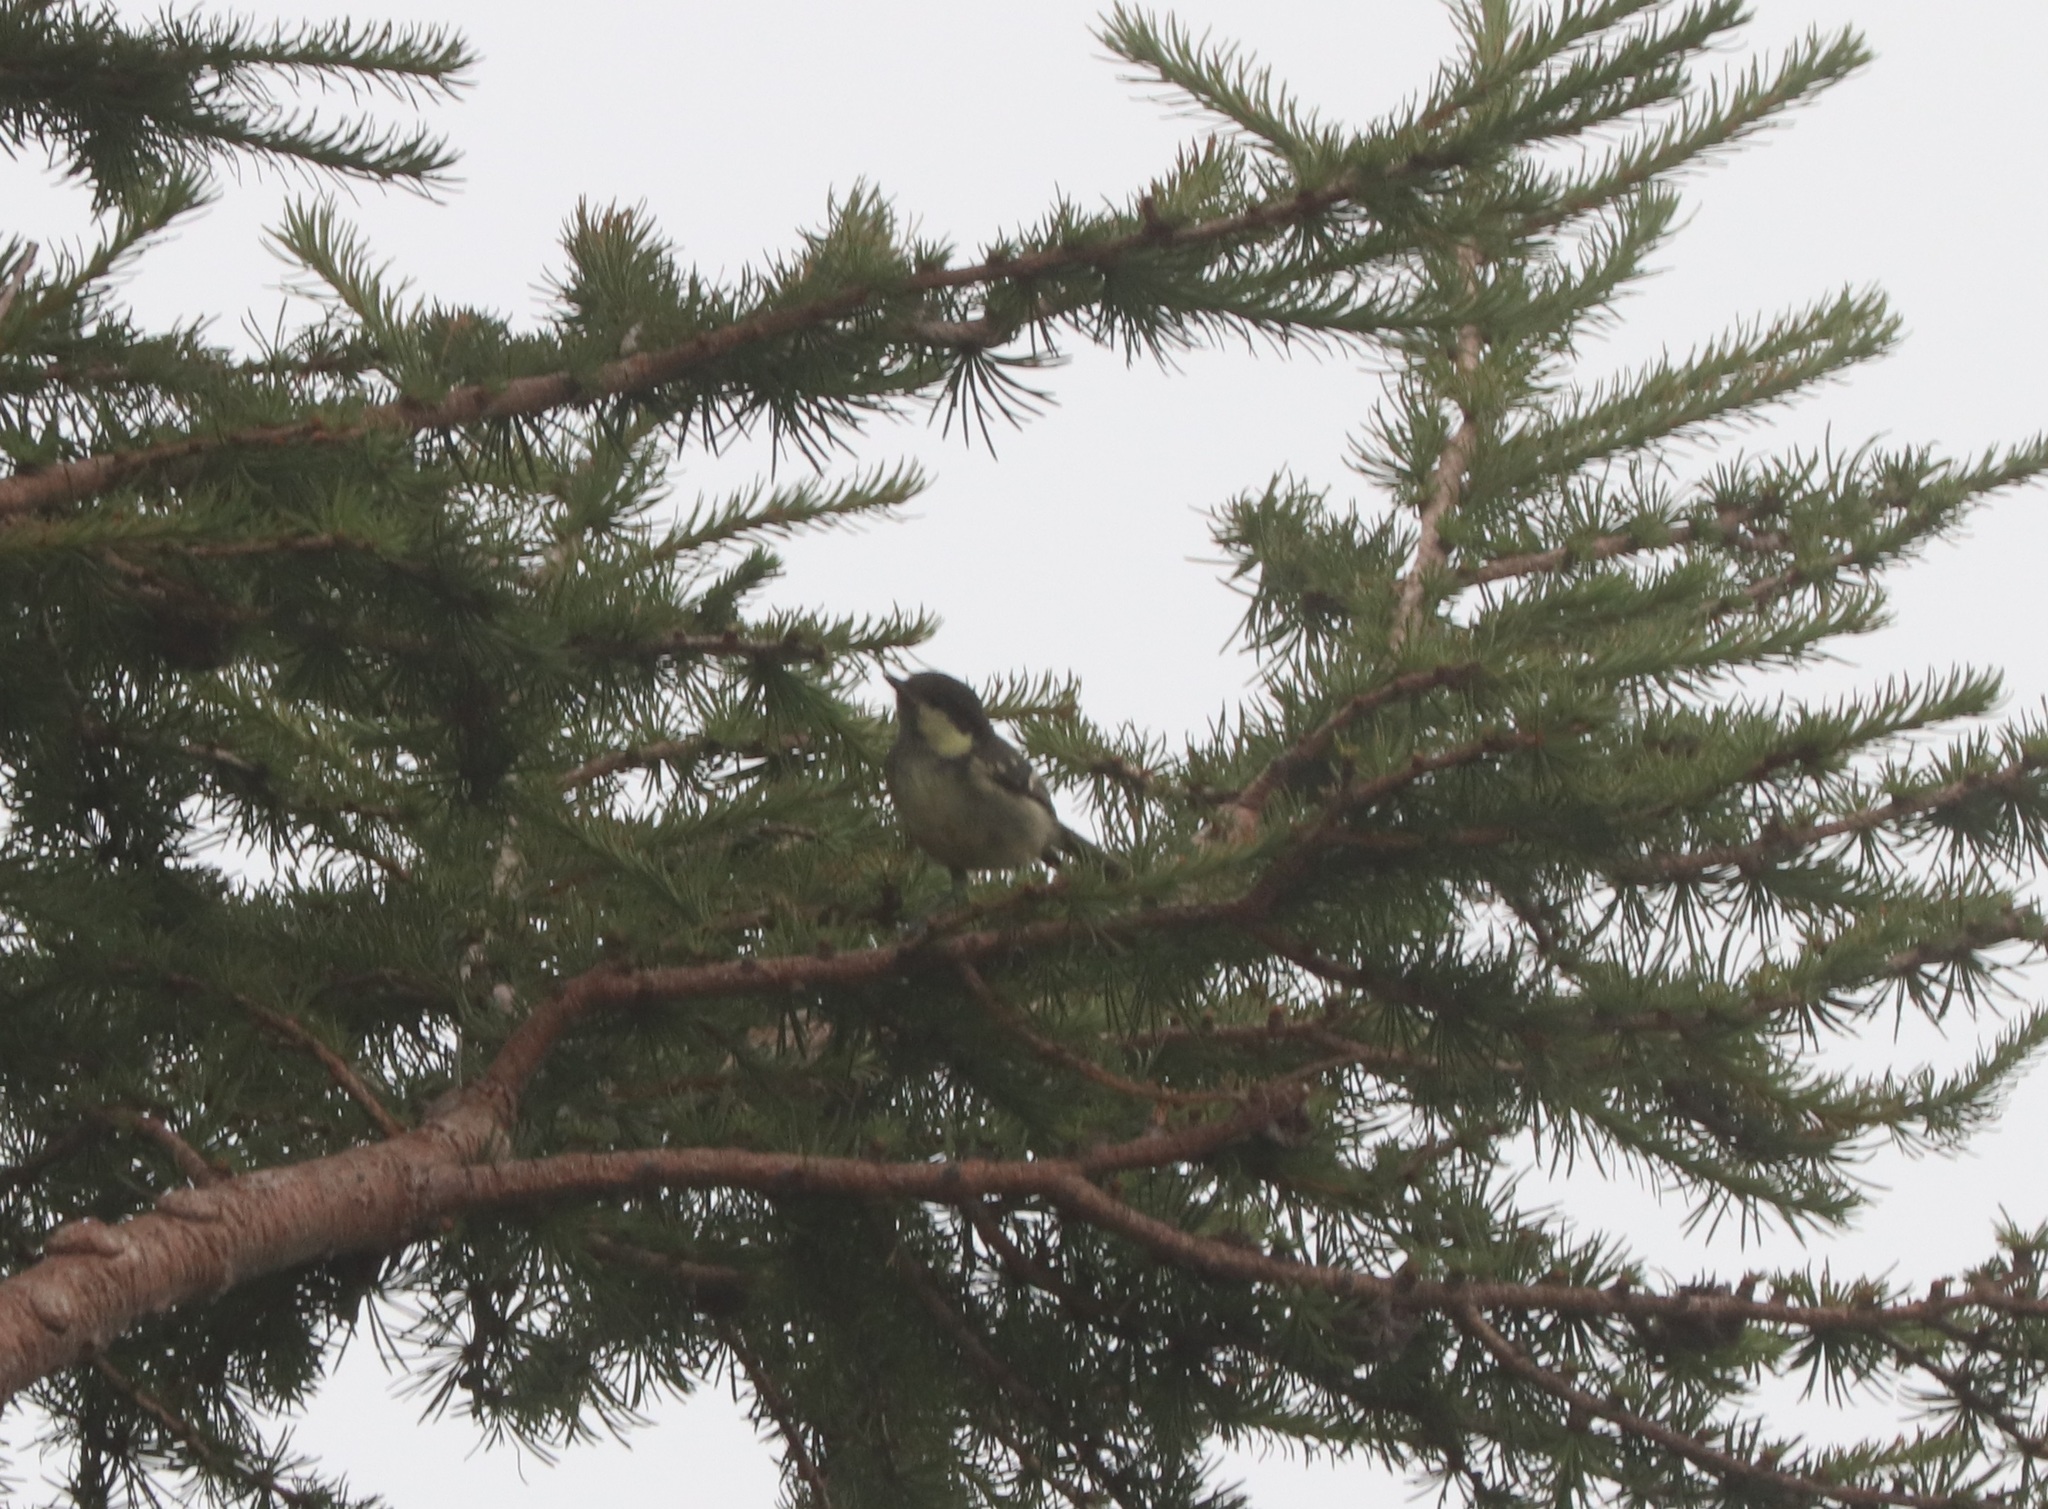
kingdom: Animalia
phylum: Chordata
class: Aves
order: Passeriformes
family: Paridae
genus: Periparus
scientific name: Periparus ater
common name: Coal tit
